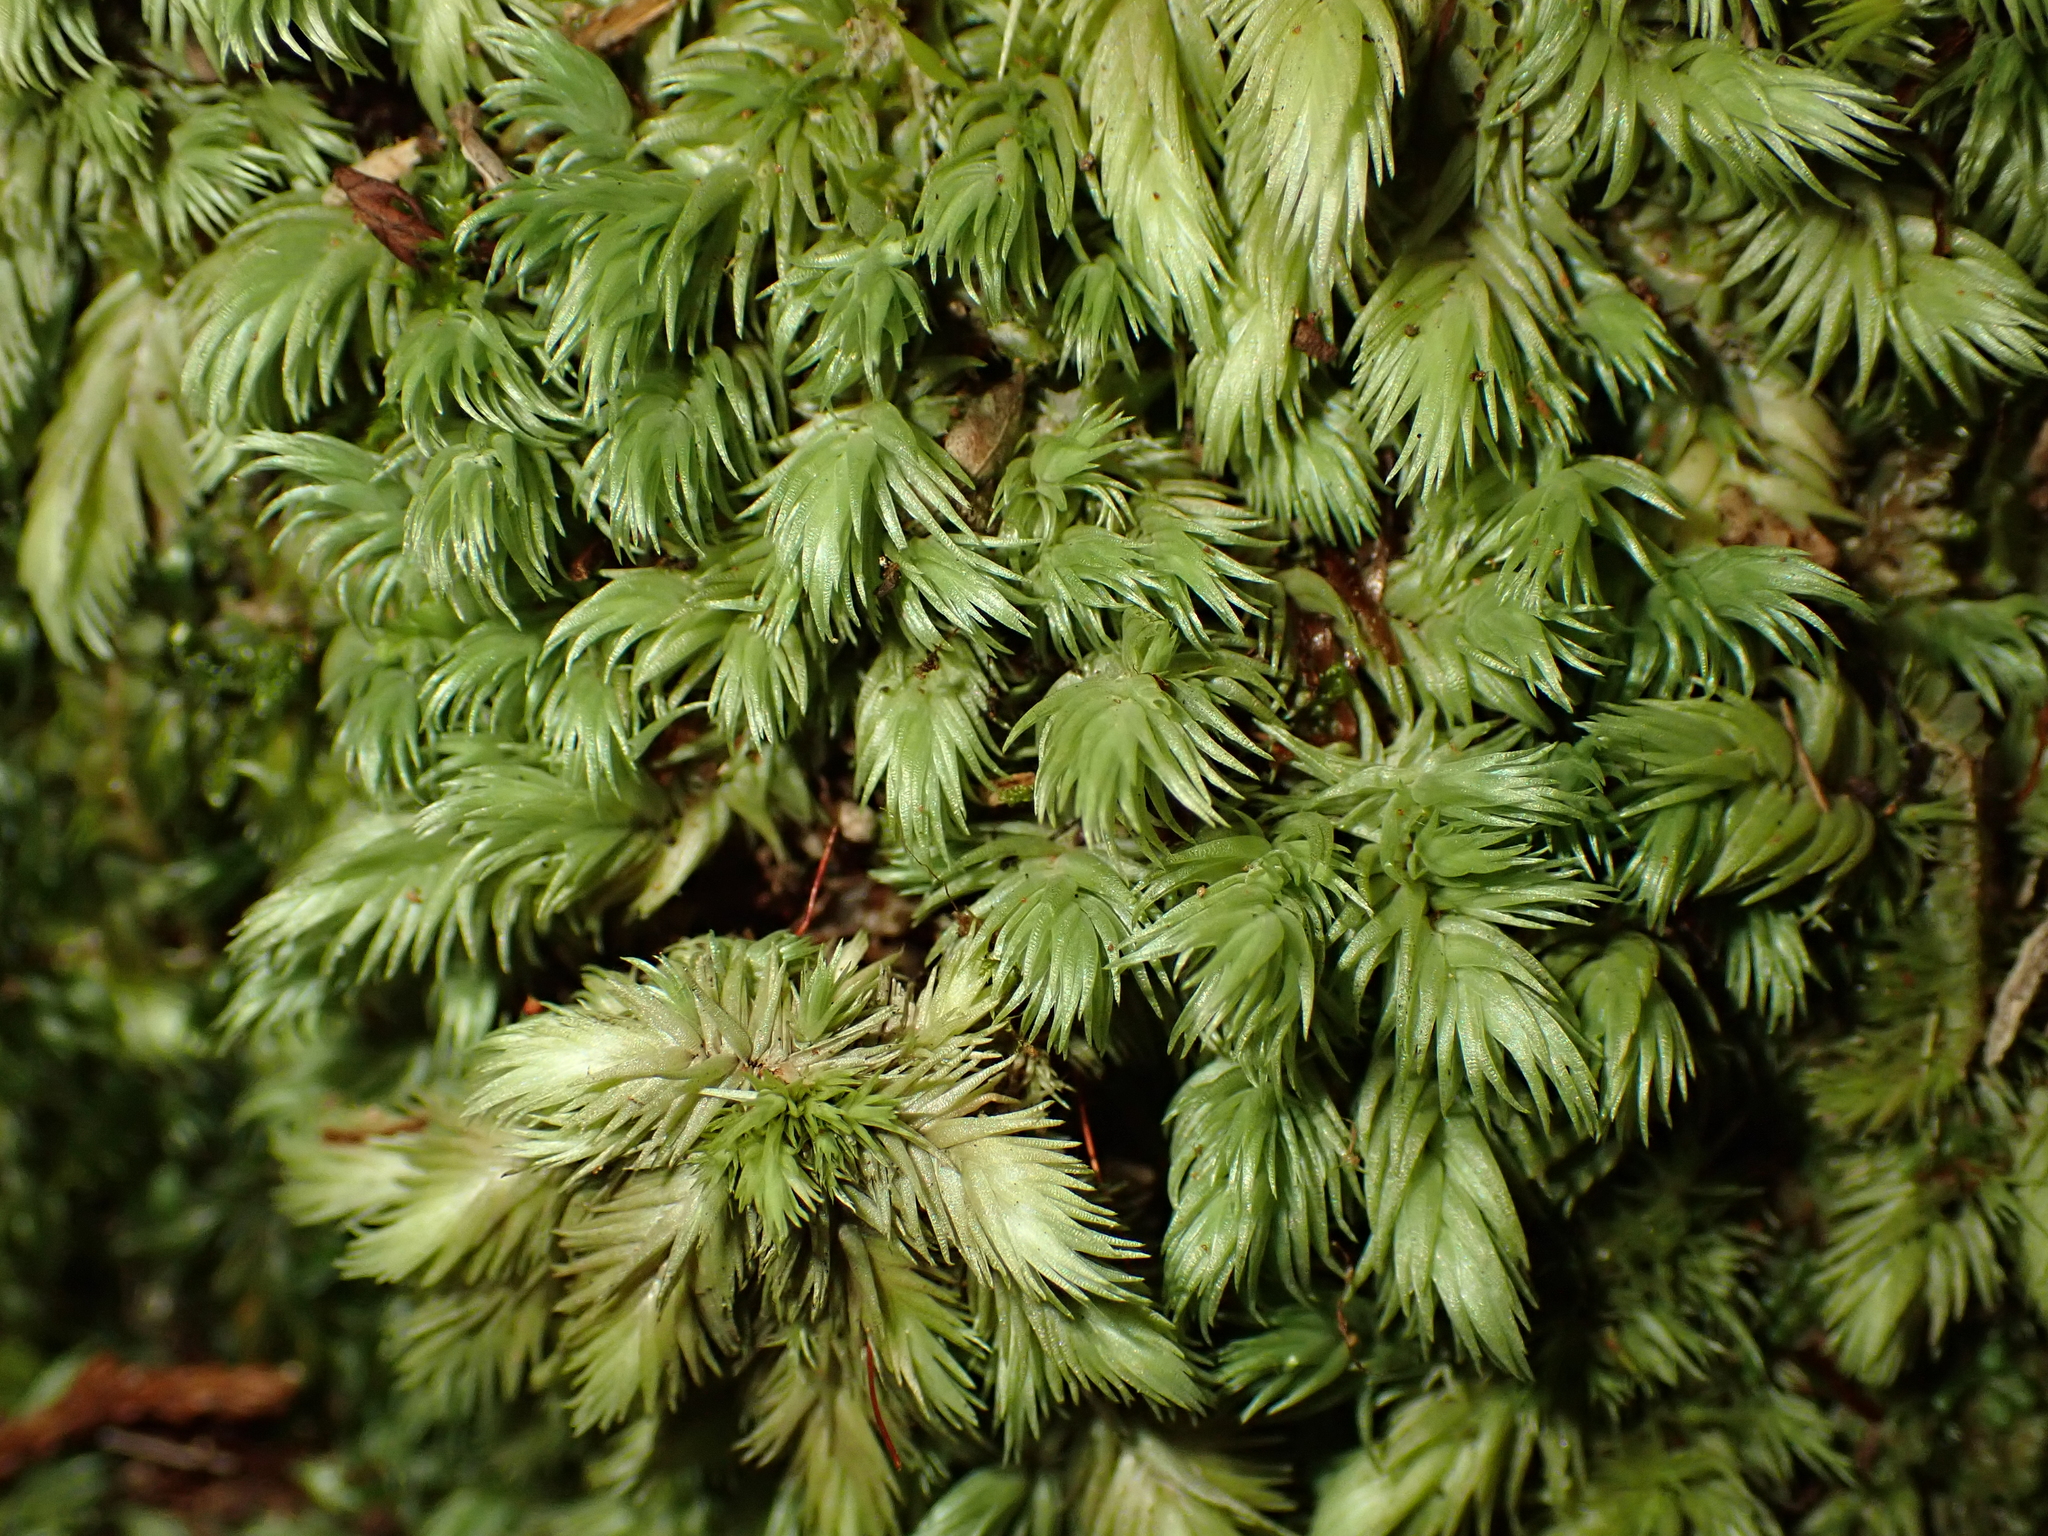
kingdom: Plantae
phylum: Bryophyta
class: Bryopsida
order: Dicranales
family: Leucobryaceae
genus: Leucobryum
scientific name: Leucobryum javense
